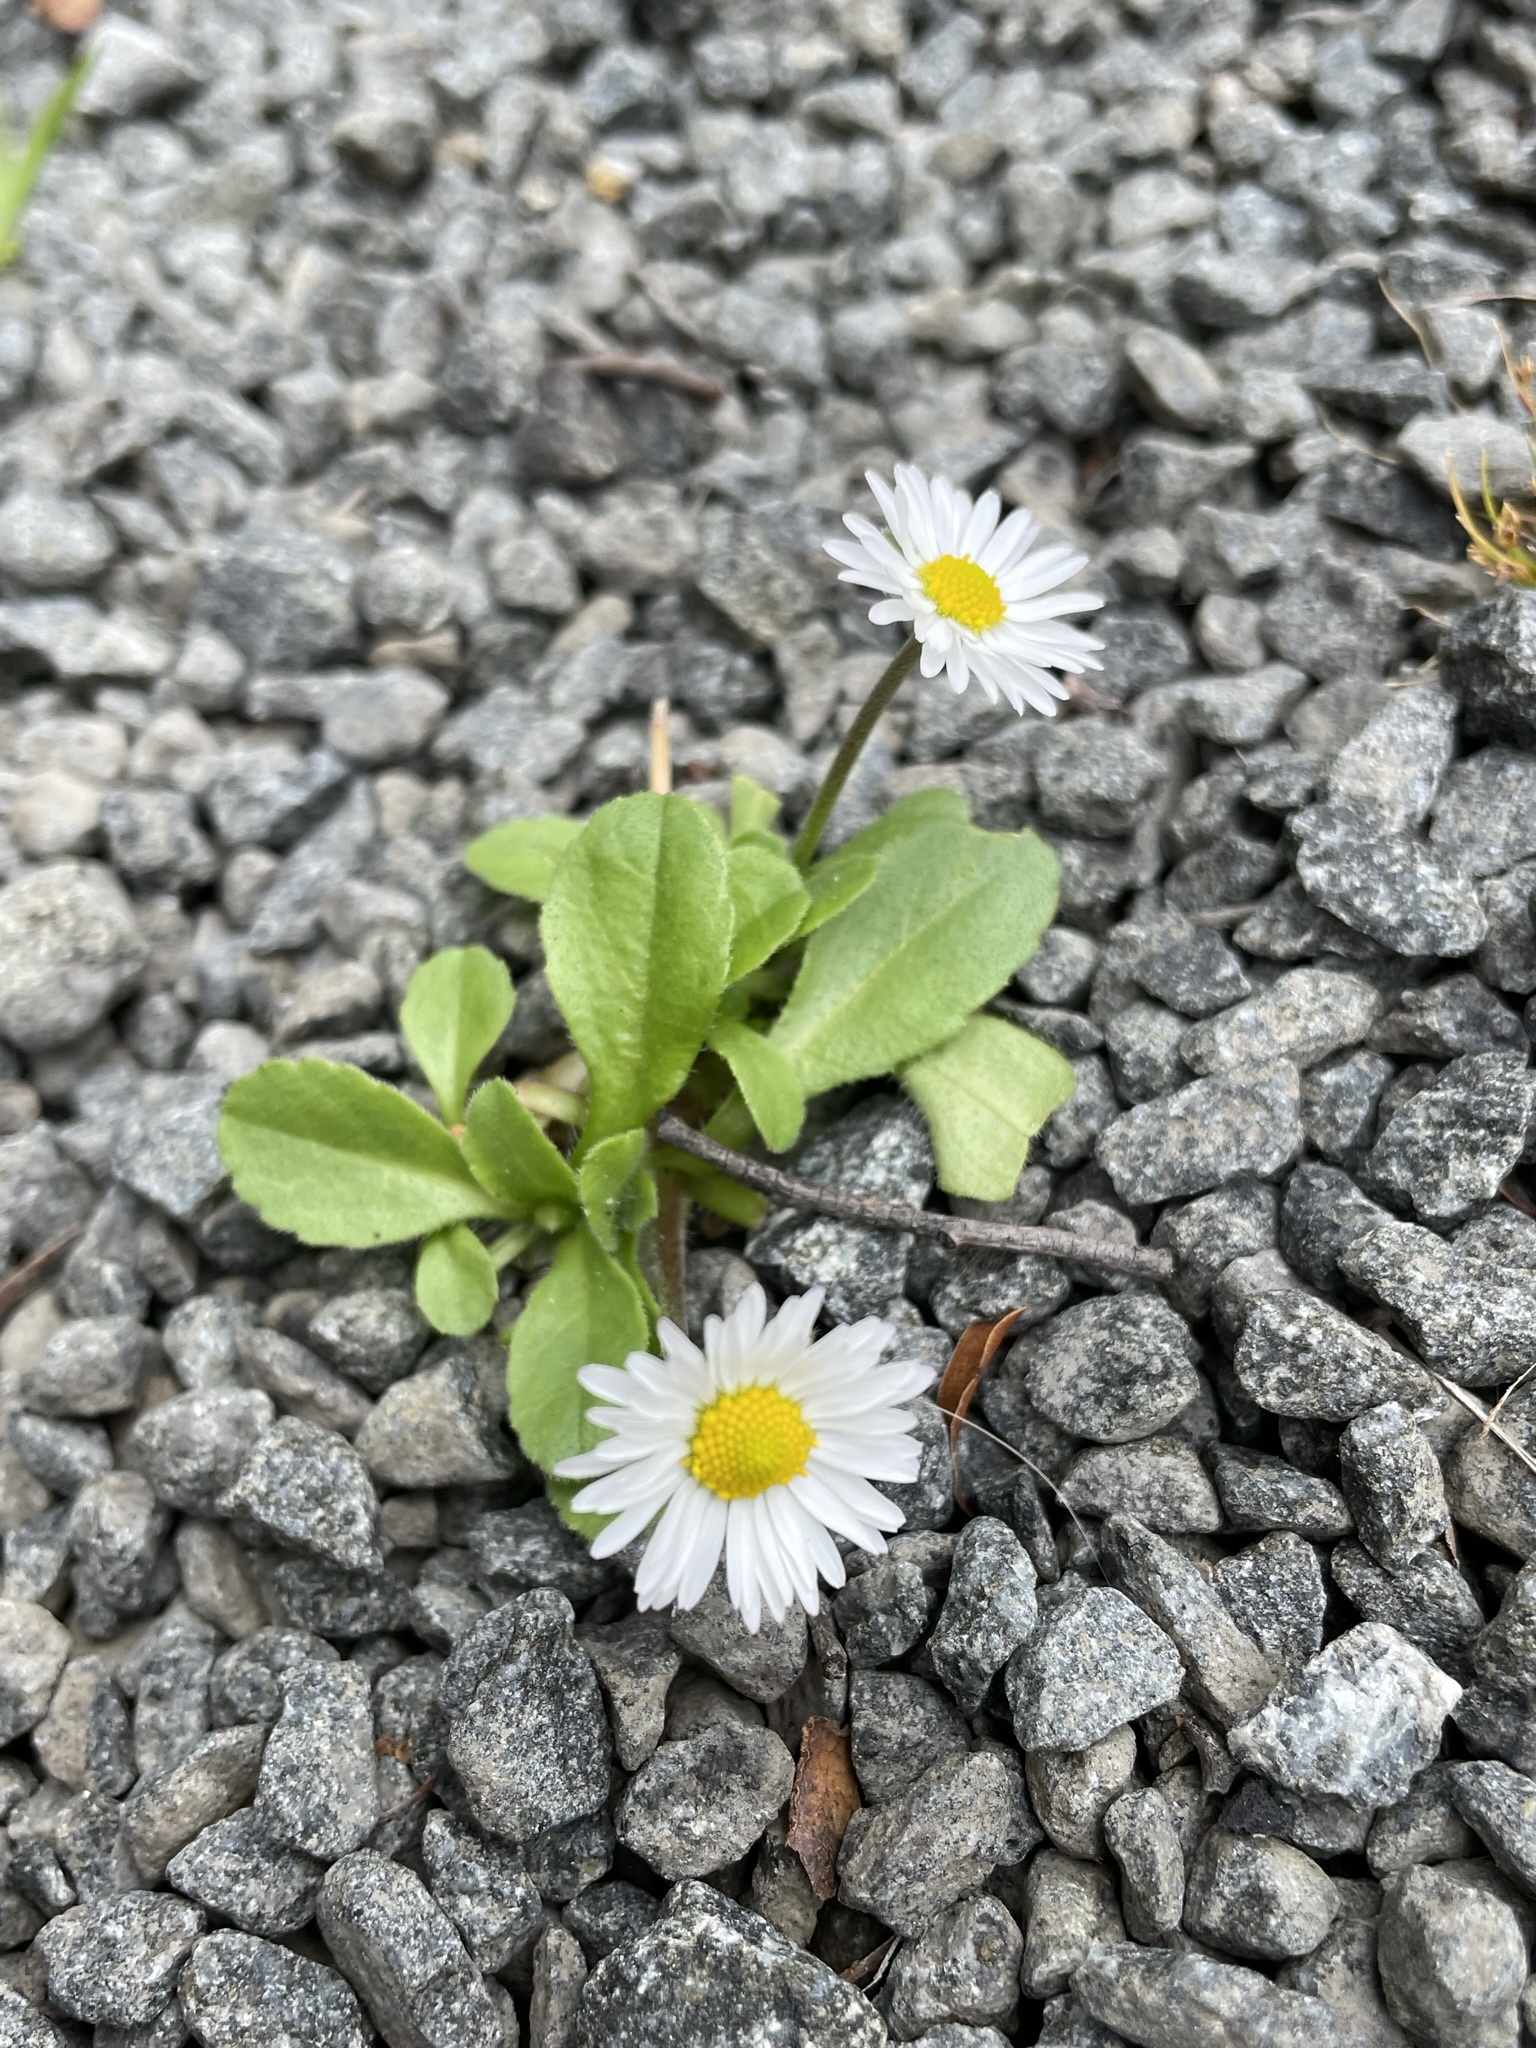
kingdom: Plantae
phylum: Tracheophyta
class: Magnoliopsida
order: Asterales
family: Asteraceae
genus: Bellis
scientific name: Bellis perennis
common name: Lawndaisy
